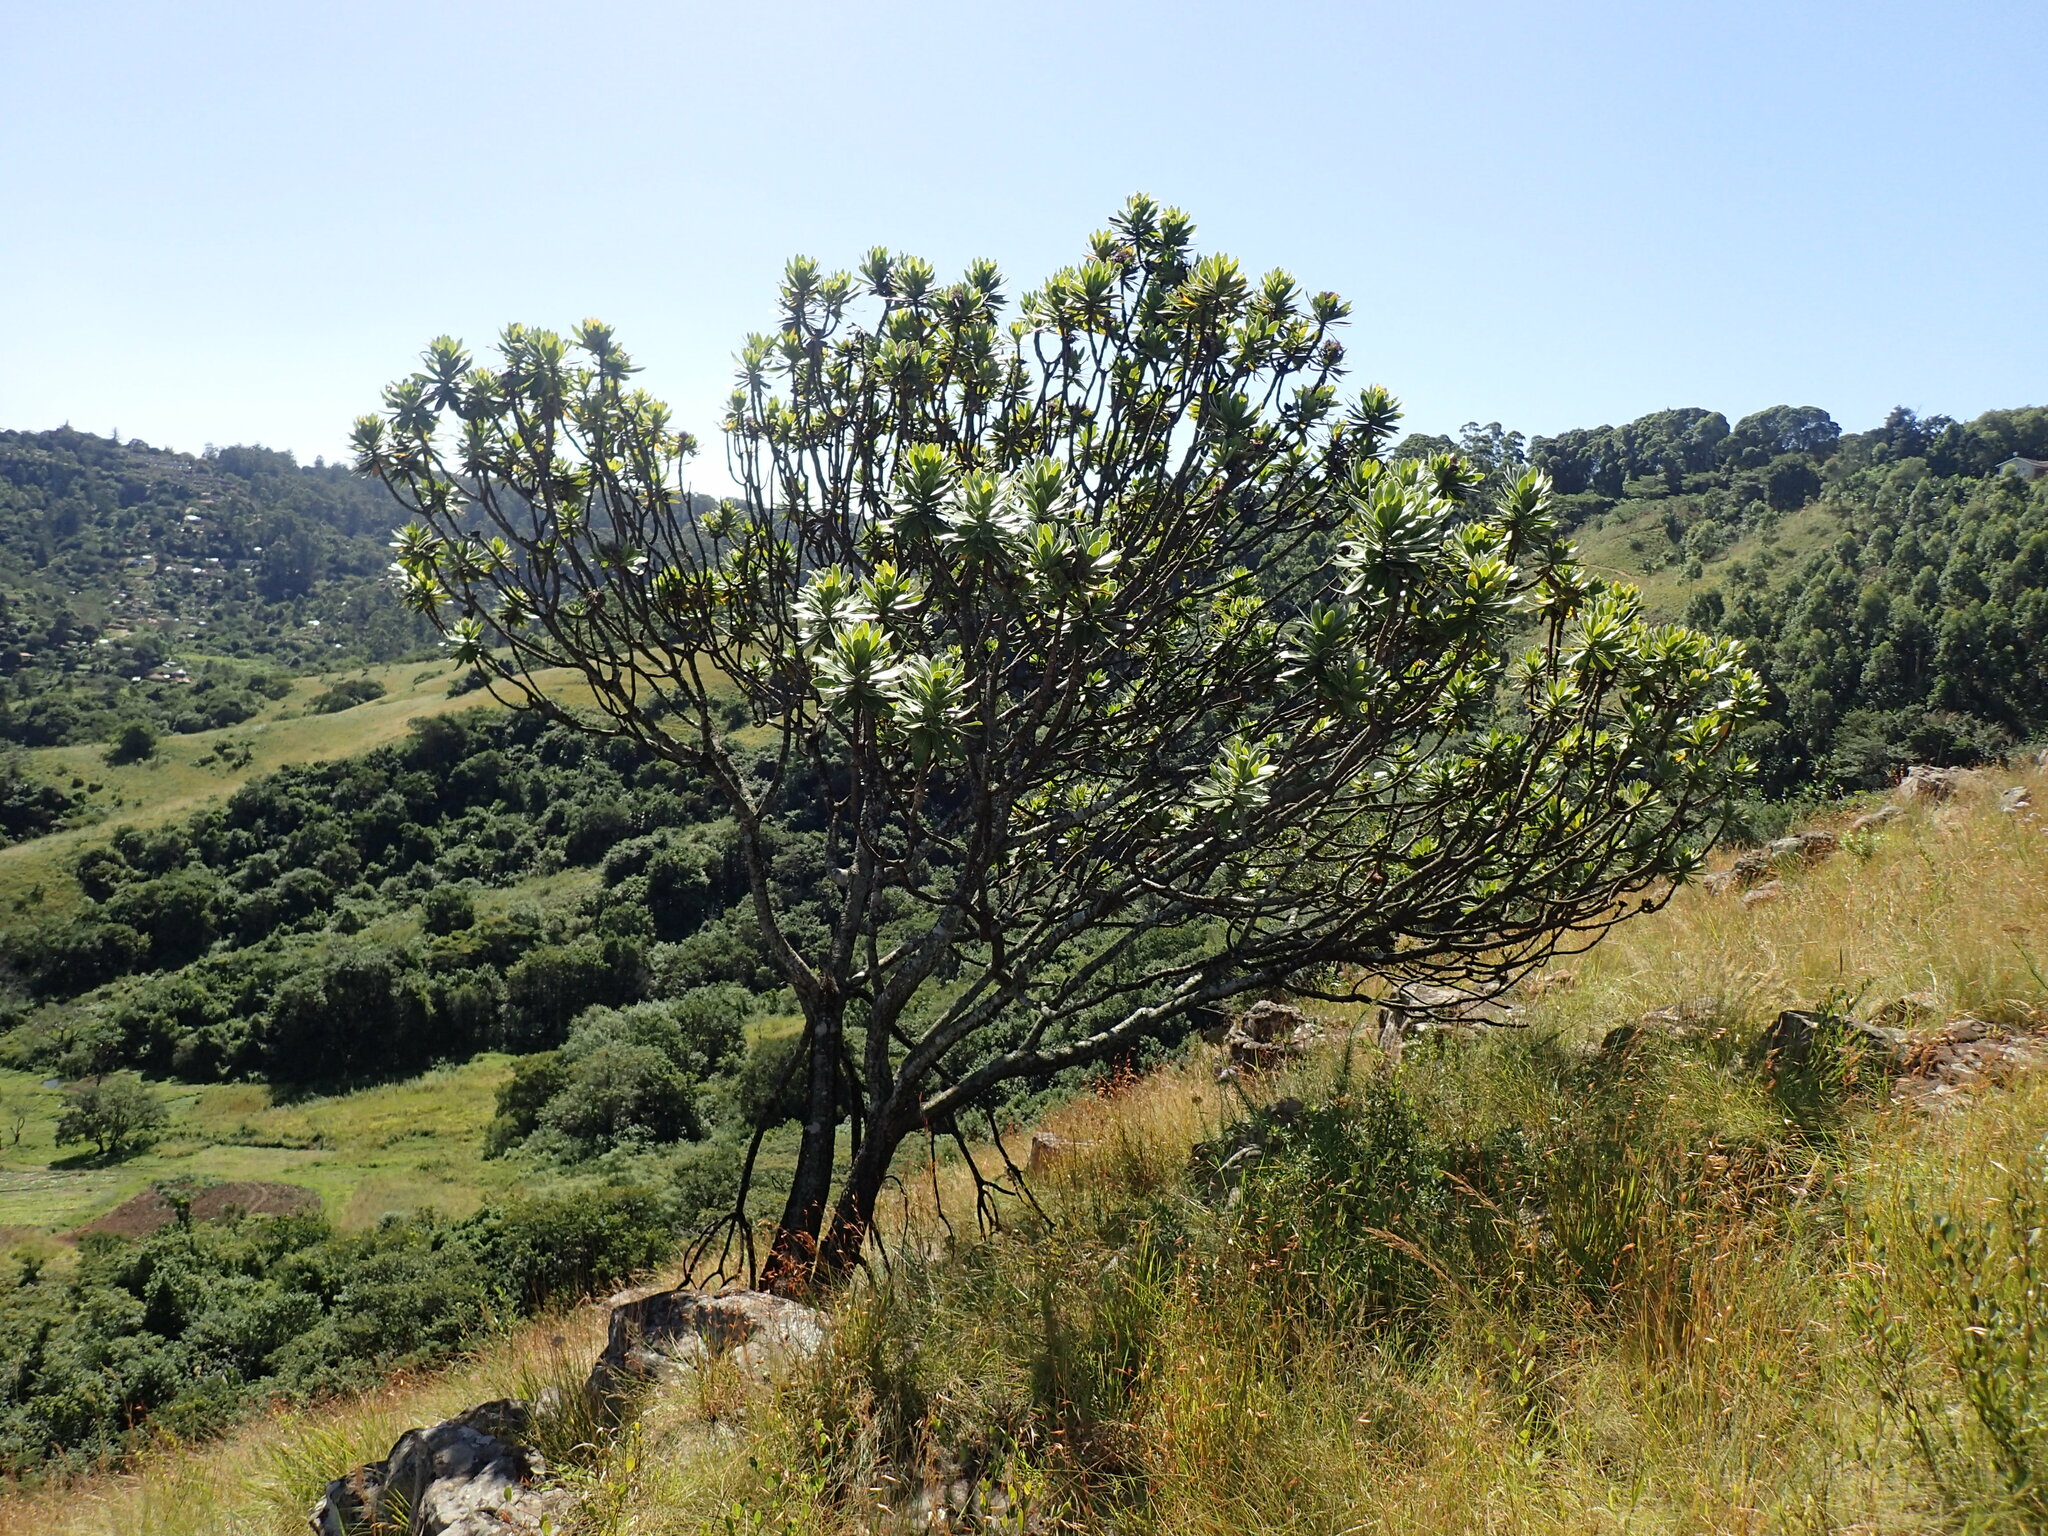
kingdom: Plantae
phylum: Tracheophyta
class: Magnoliopsida
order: Proteales
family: Proteaceae
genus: Protea
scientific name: Protea roupelliae
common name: Silver sugarbush
